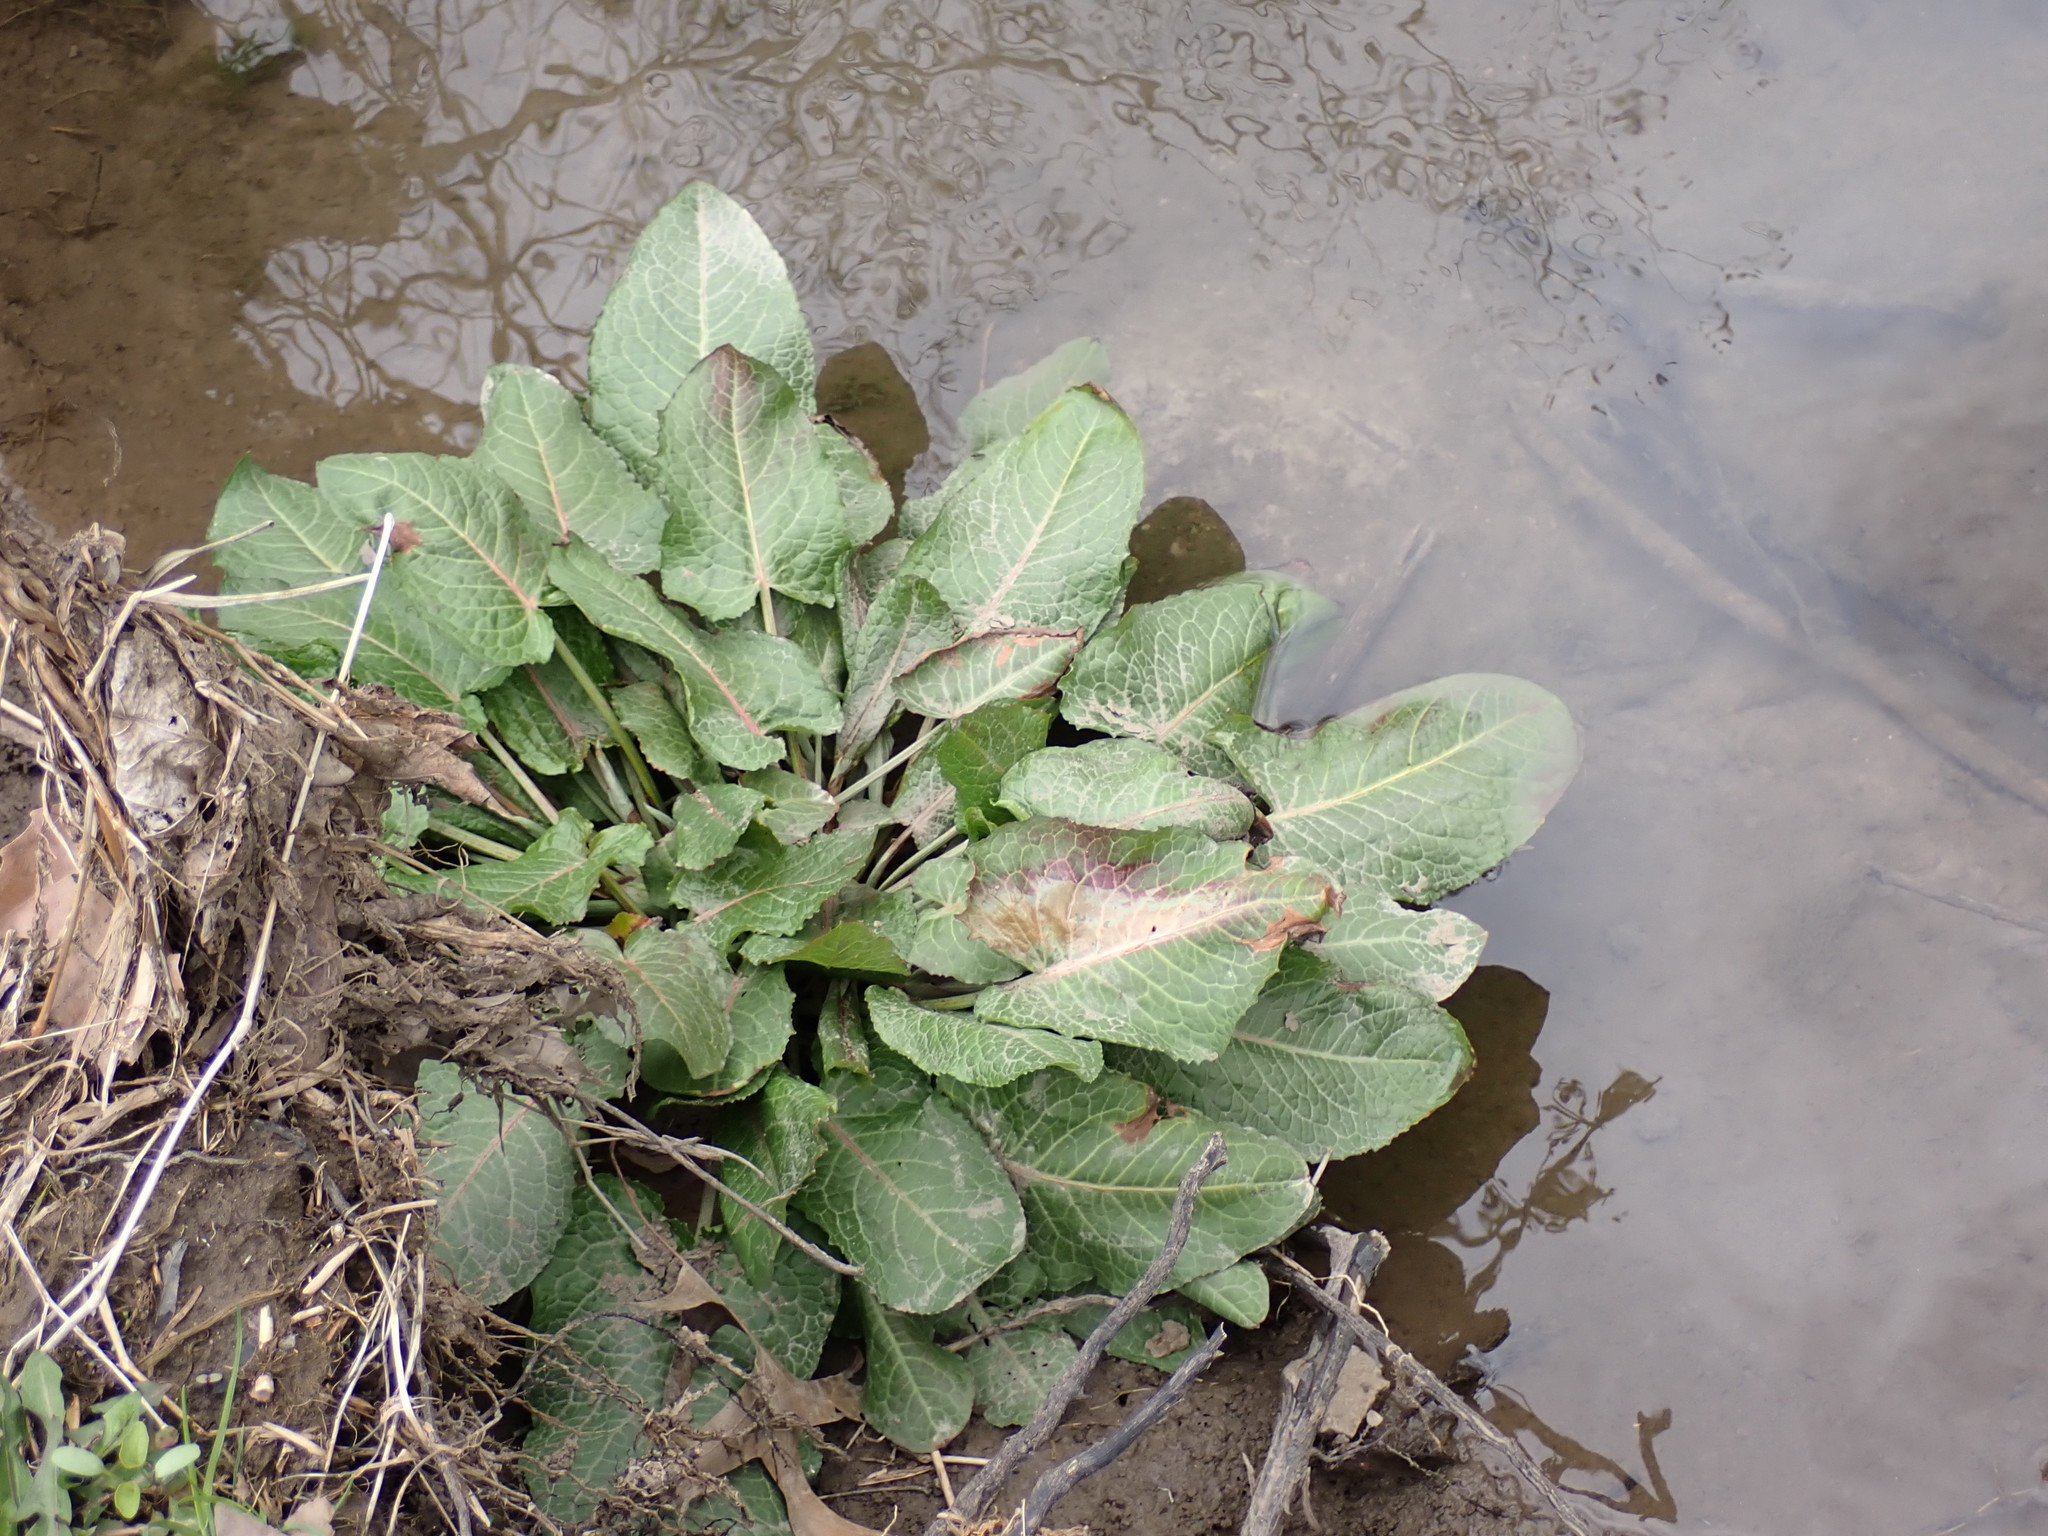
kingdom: Plantae
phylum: Tracheophyta
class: Magnoliopsida
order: Caryophyllales
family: Polygonaceae
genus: Rumex
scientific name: Rumex obtusifolius
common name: Bitter dock
